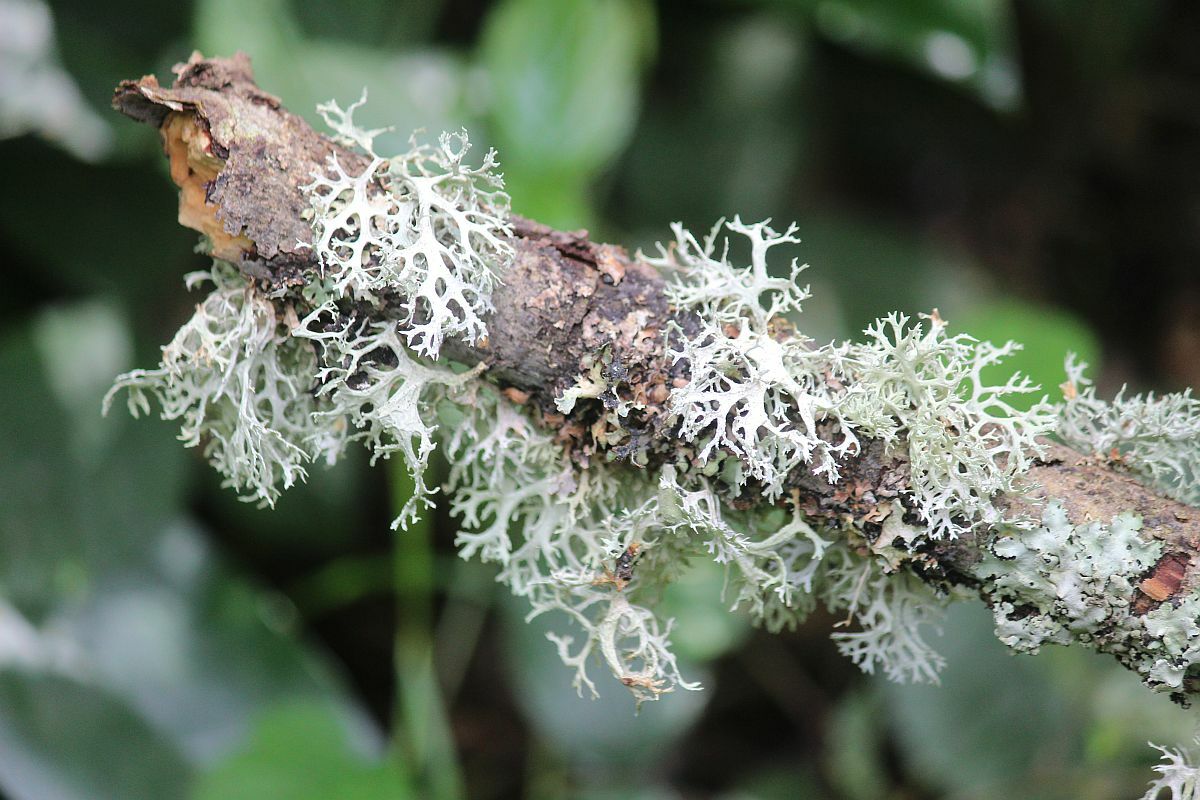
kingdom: Fungi
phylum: Ascomycota
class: Lecanoromycetes
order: Lecanorales
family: Parmeliaceae
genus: Evernia
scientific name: Evernia prunastri
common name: Oak moss
